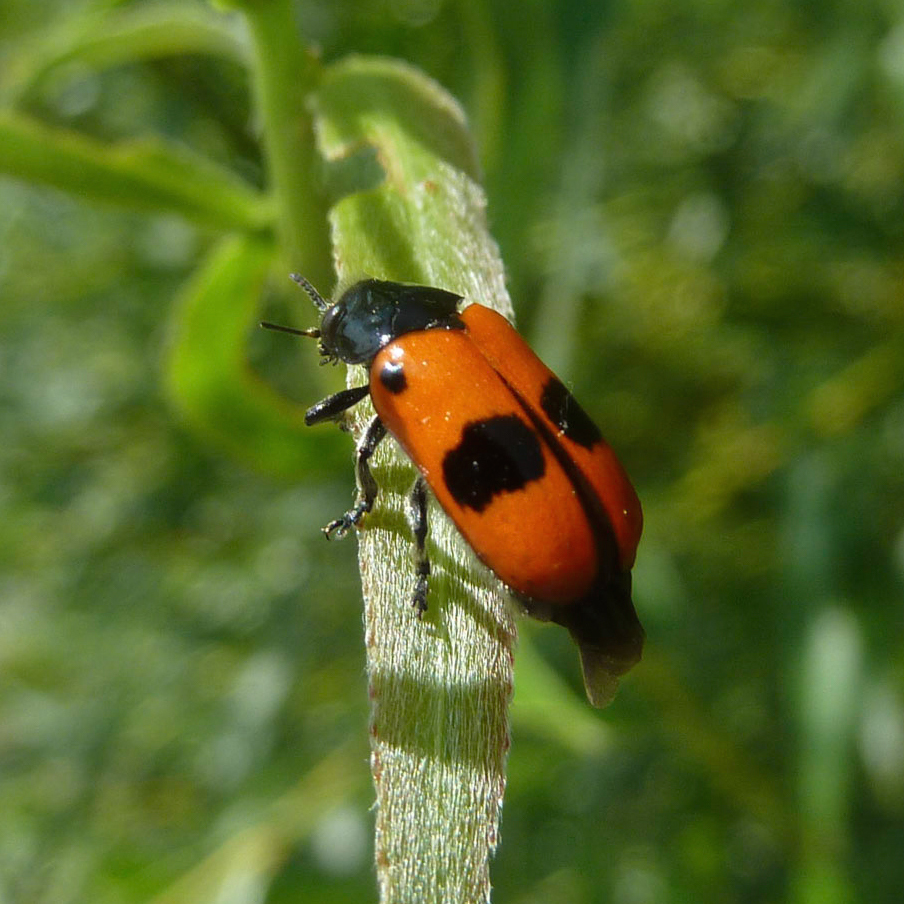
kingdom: Animalia
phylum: Arthropoda
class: Insecta
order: Coleoptera
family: Chrysomelidae
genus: Clytra
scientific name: Clytra laeviuscula
